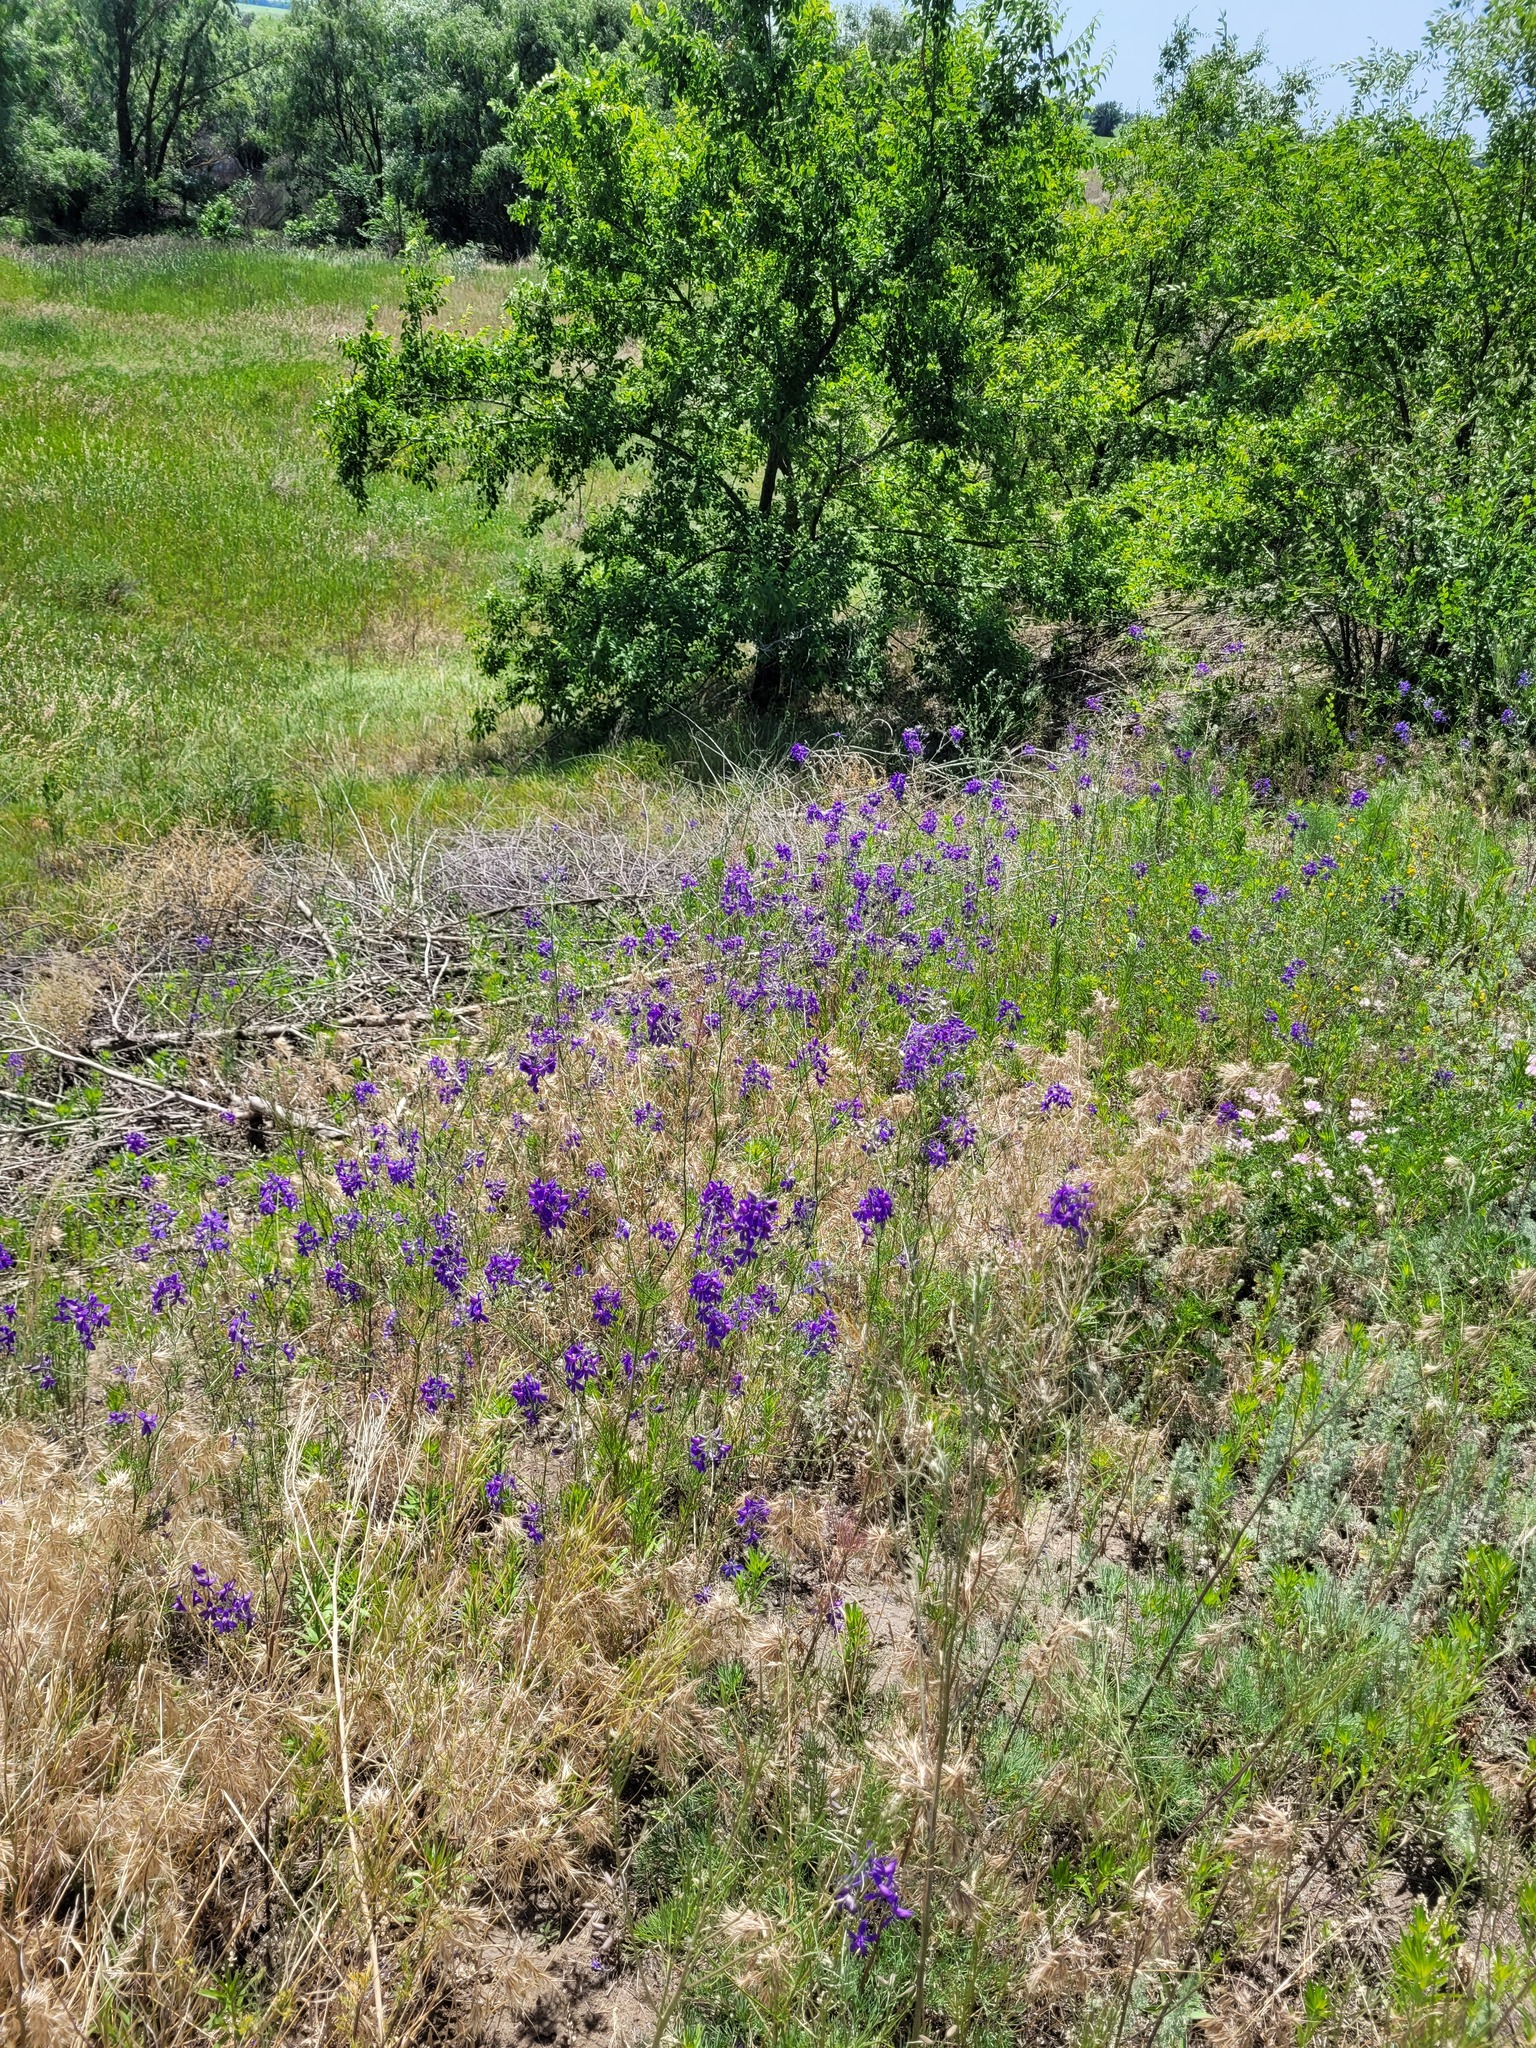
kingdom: Plantae
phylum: Tracheophyta
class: Magnoliopsida
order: Ranunculales
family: Ranunculaceae
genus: Delphinium
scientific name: Delphinium consolida
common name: Branching larkspur
